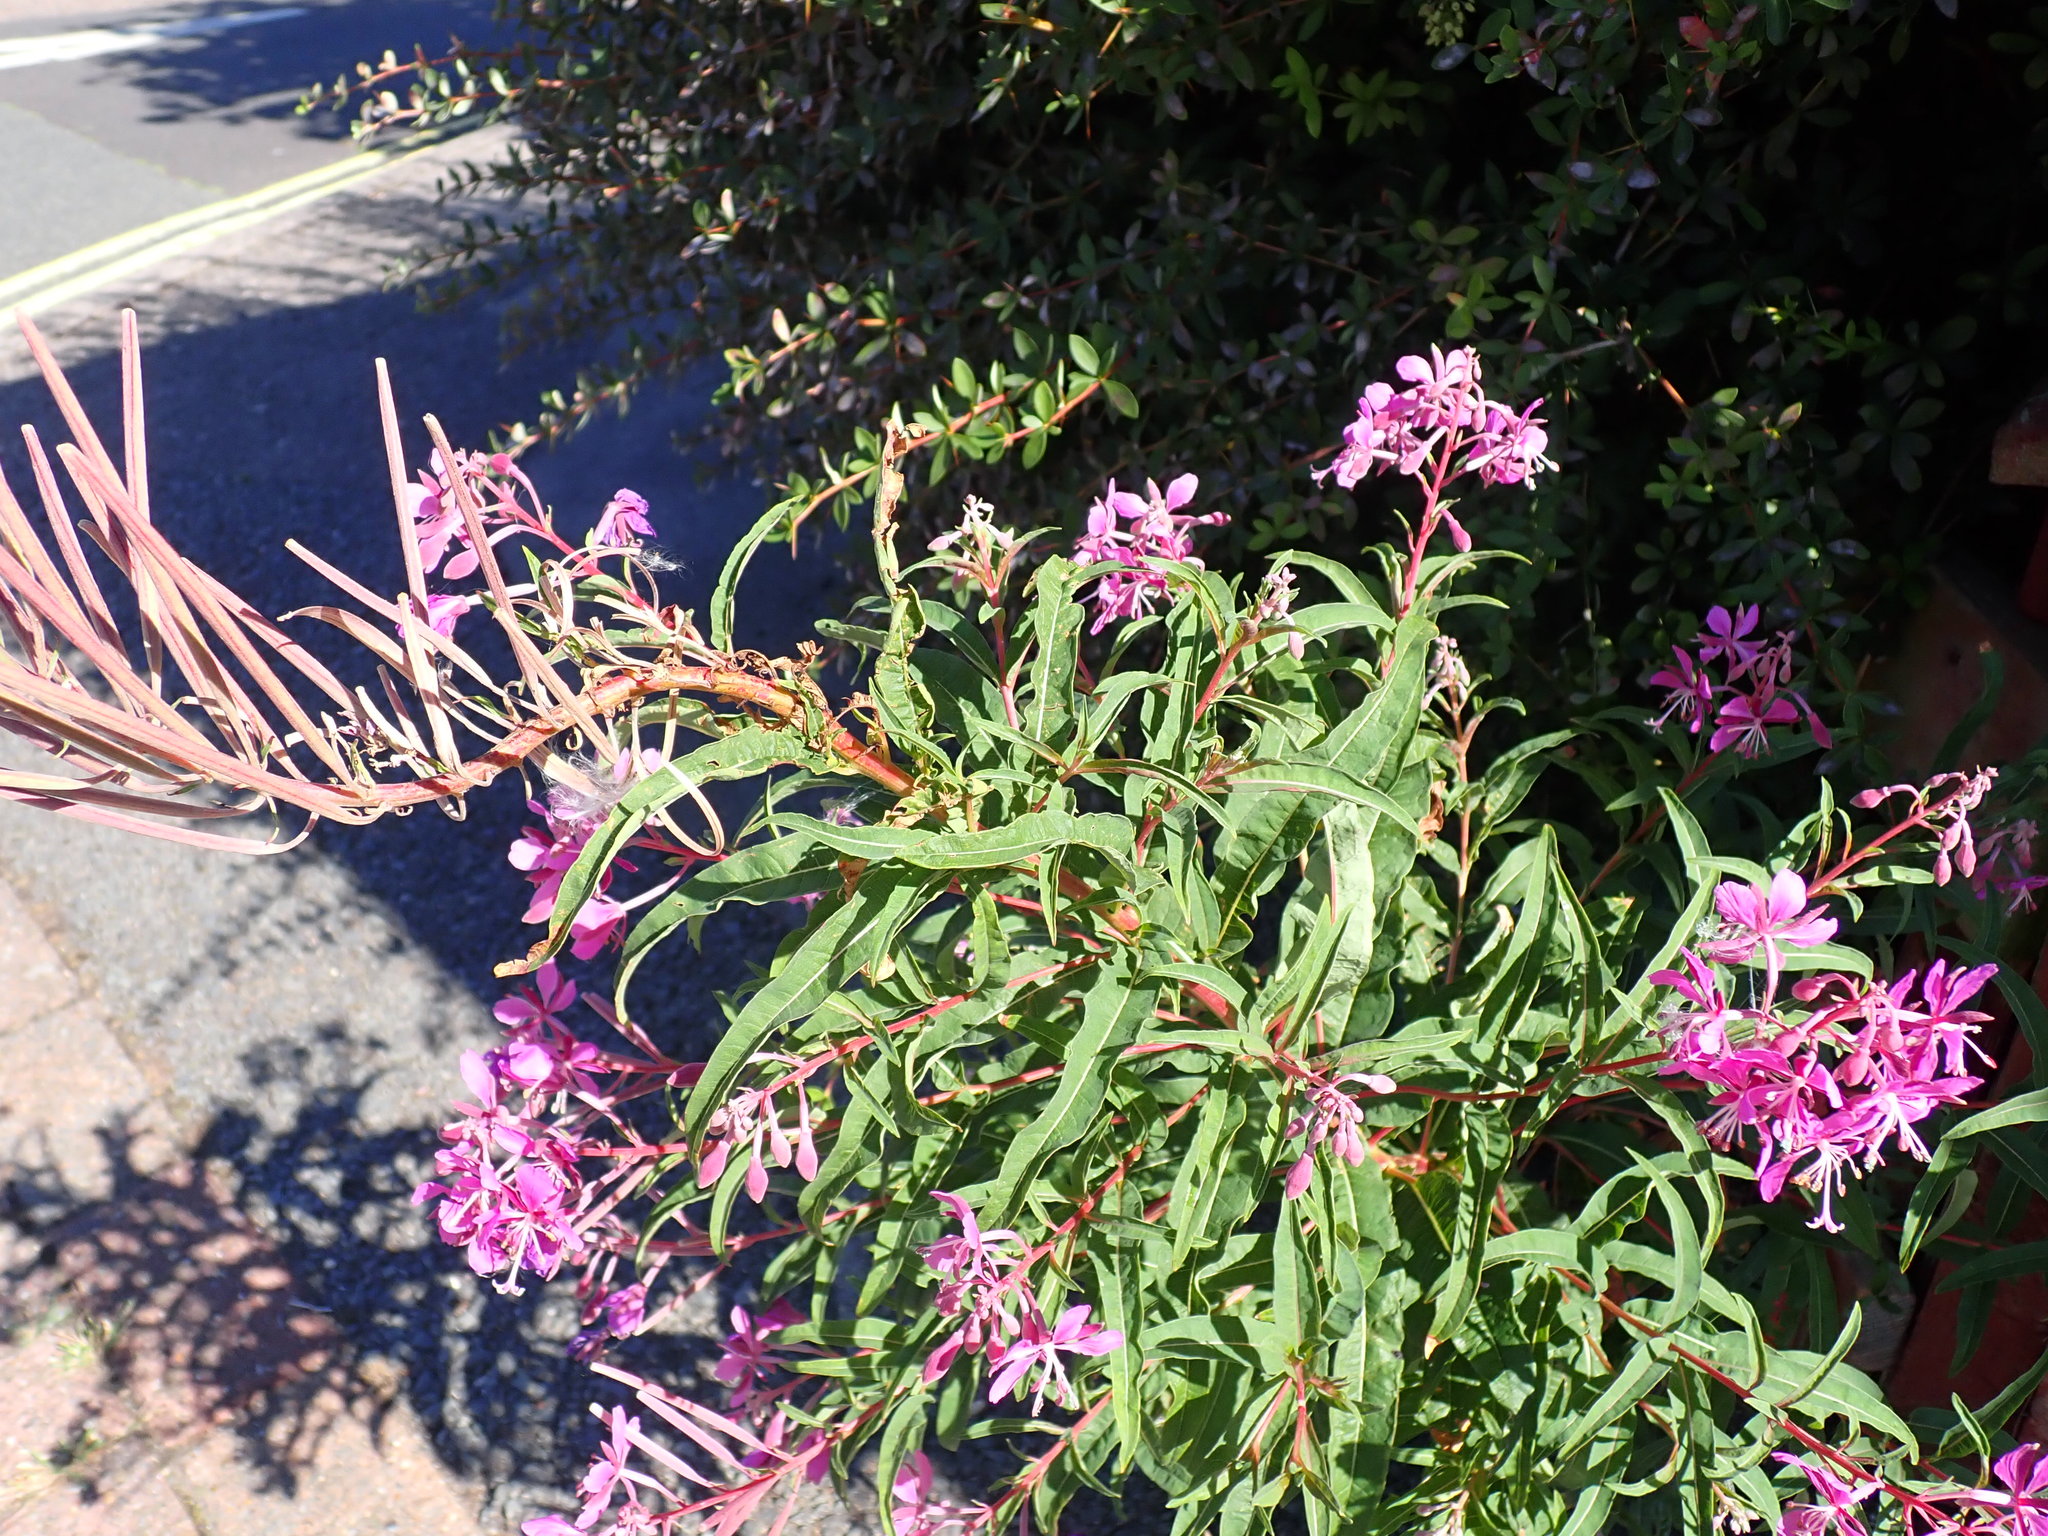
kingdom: Plantae
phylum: Tracheophyta
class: Magnoliopsida
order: Myrtales
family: Onagraceae
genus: Chamaenerion
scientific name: Chamaenerion angustifolium
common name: Fireweed
